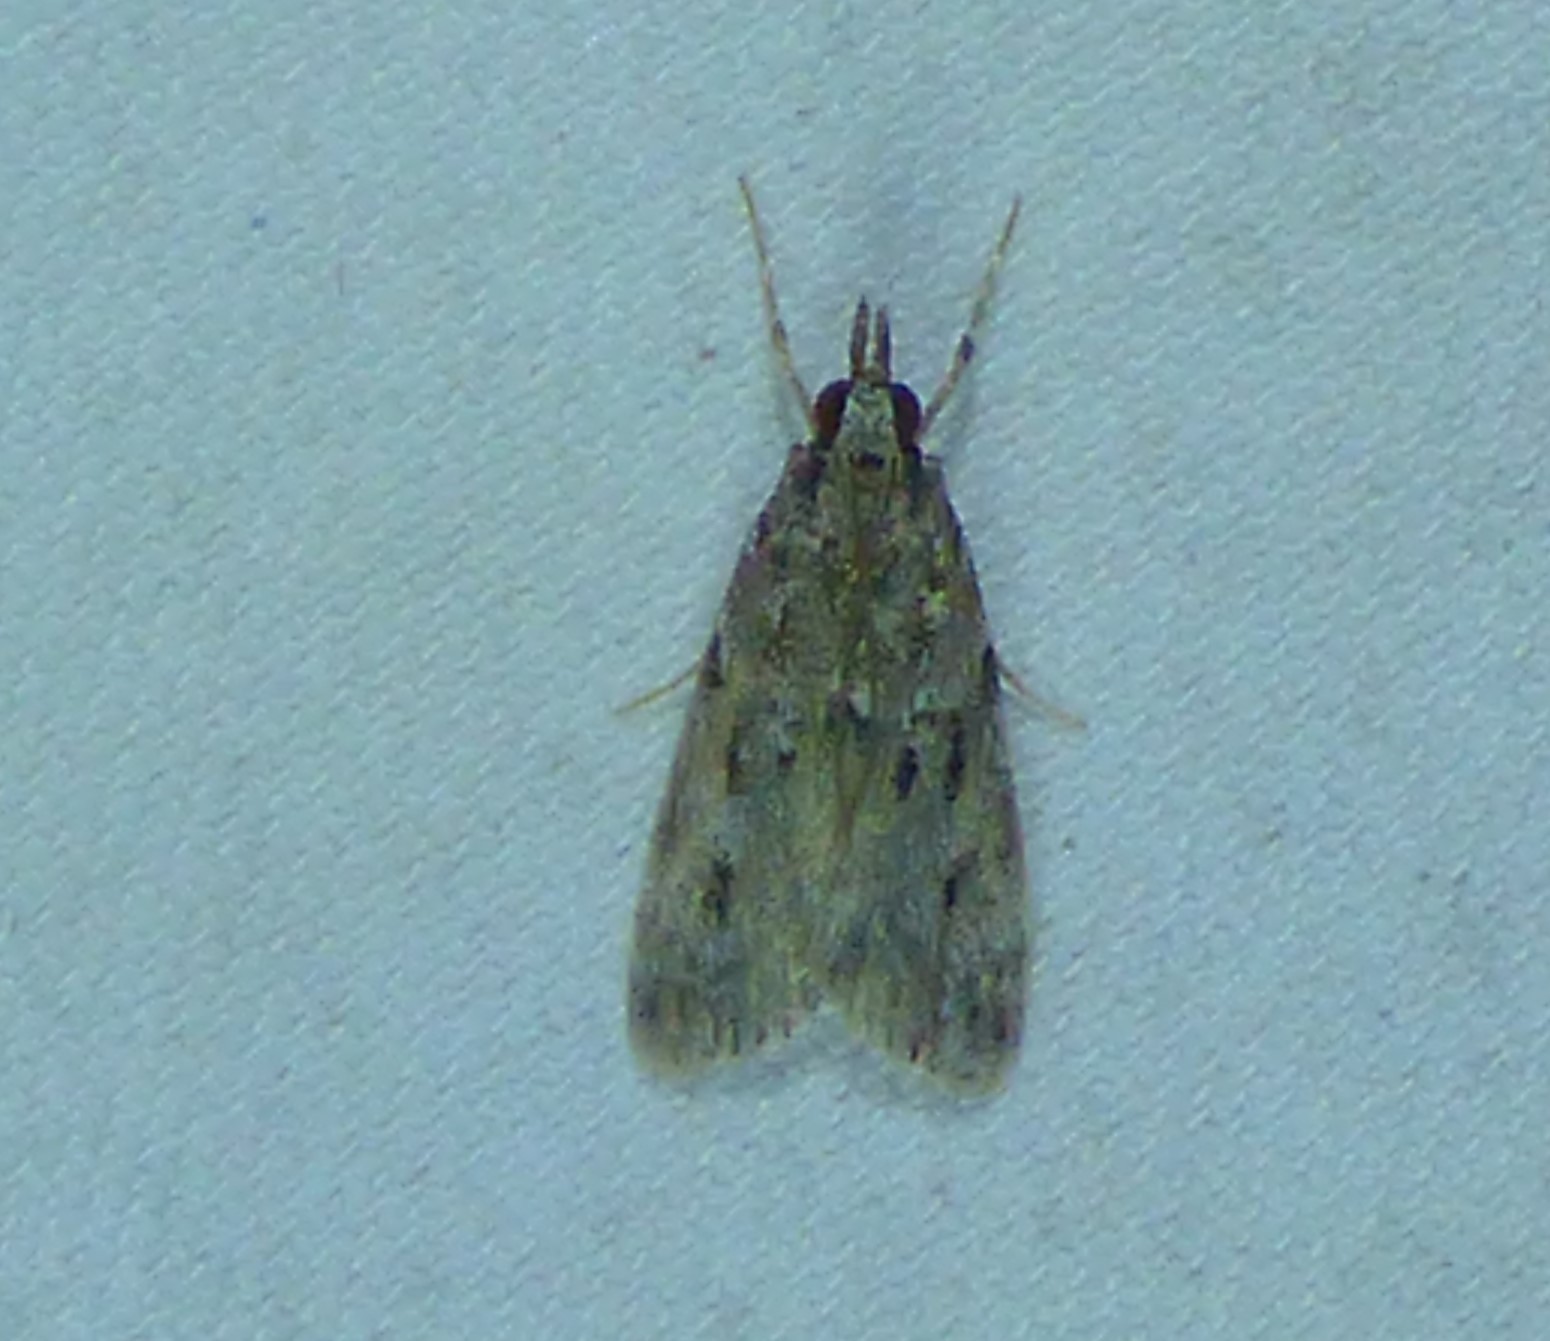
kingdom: Animalia
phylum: Arthropoda
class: Insecta
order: Lepidoptera
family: Crambidae
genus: Eudonia
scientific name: Eudonia heterosalis
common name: Mcdunnough's eudonia
